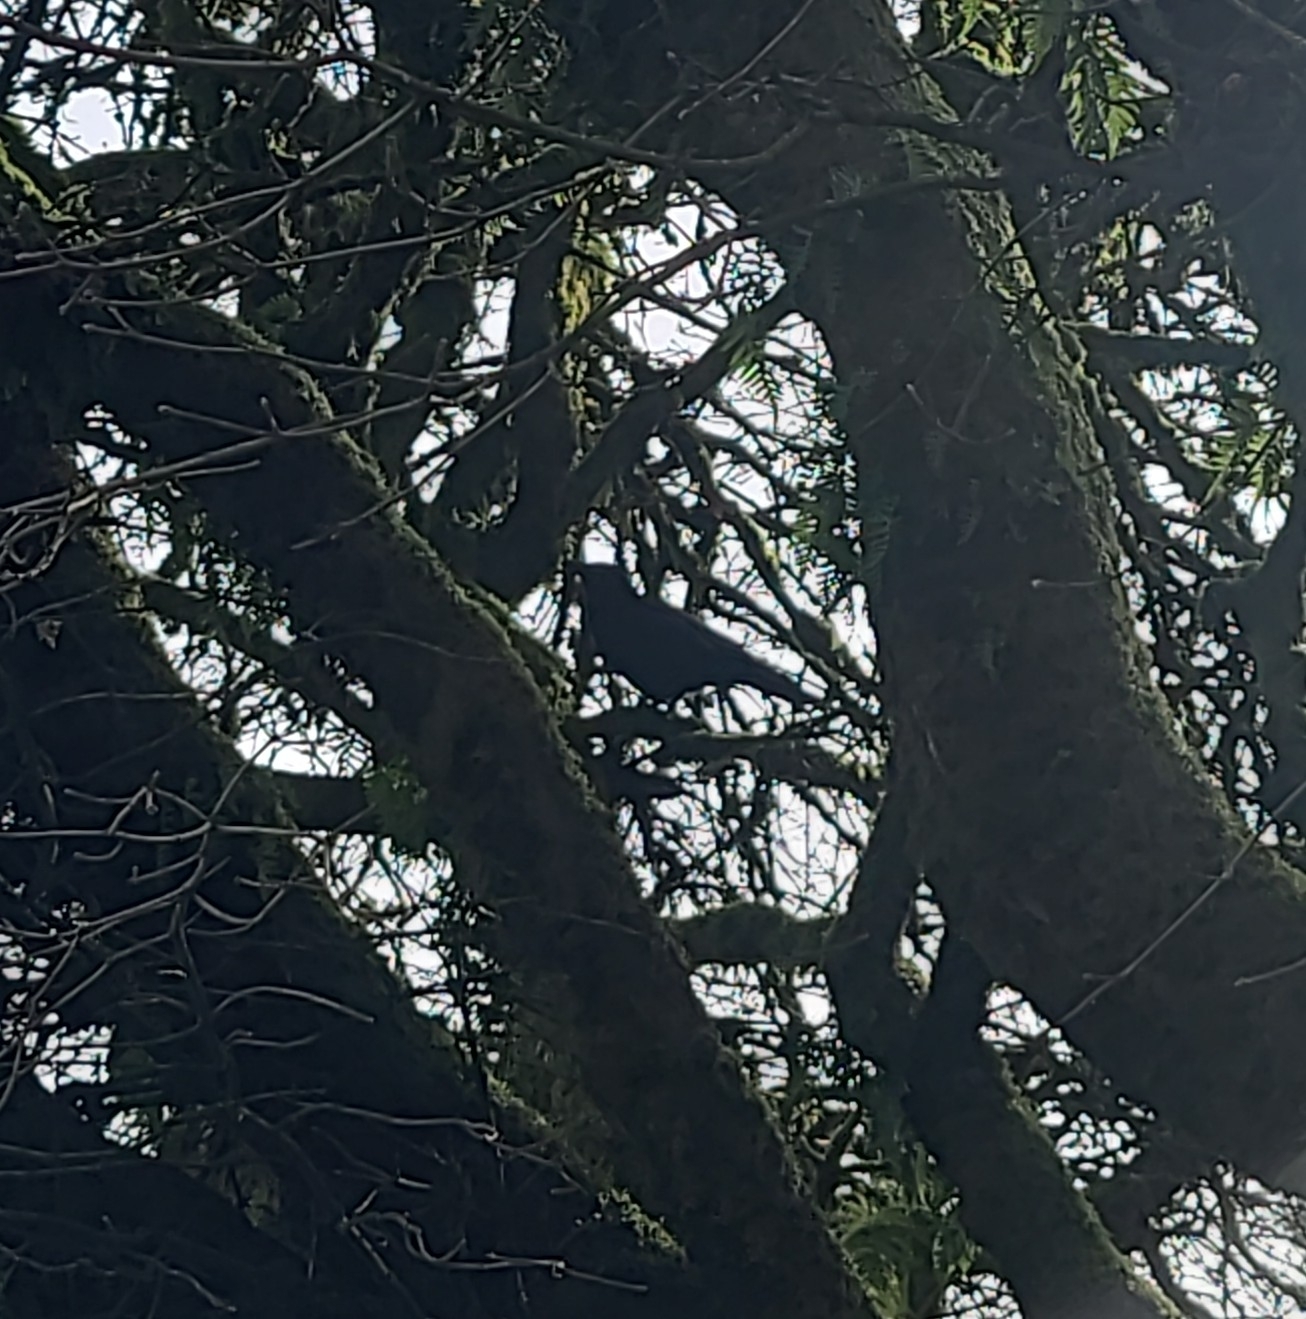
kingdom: Animalia
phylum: Chordata
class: Aves
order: Passeriformes
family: Corvidae
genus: Corvus
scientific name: Corvus brachyrhynchos
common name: American crow
